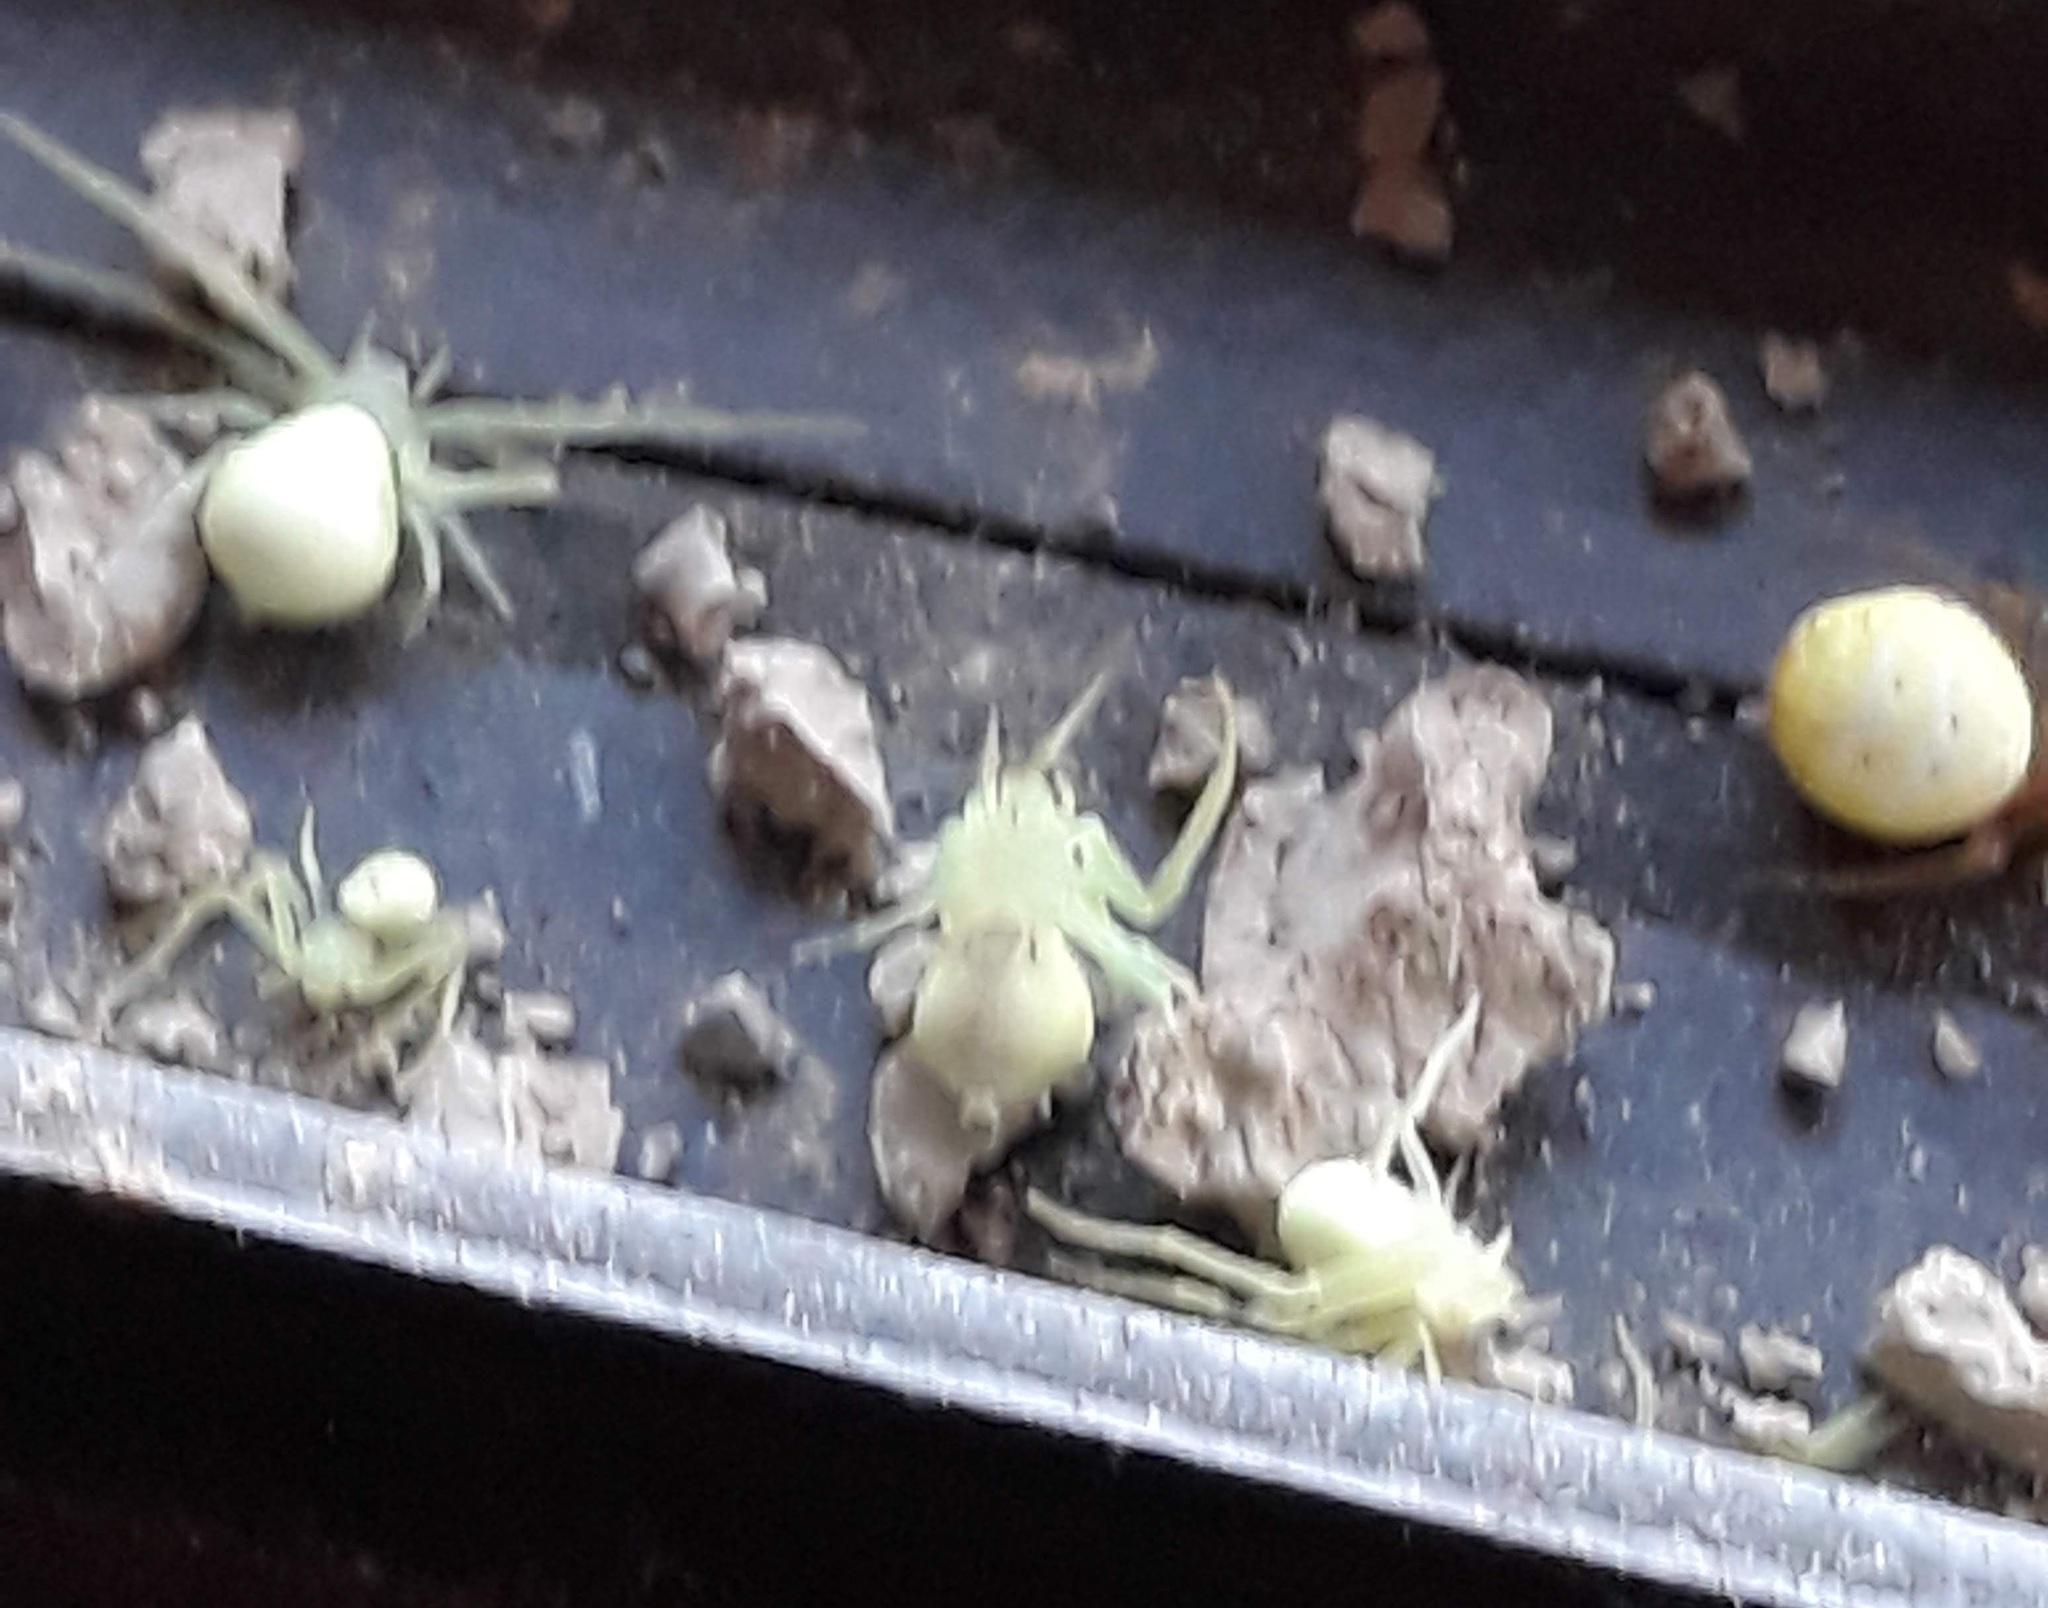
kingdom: Animalia
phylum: Arthropoda
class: Arachnida
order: Araneae
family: Thomisidae
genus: Misumessus
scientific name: Misumessus oblongus
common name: American green crab spider
